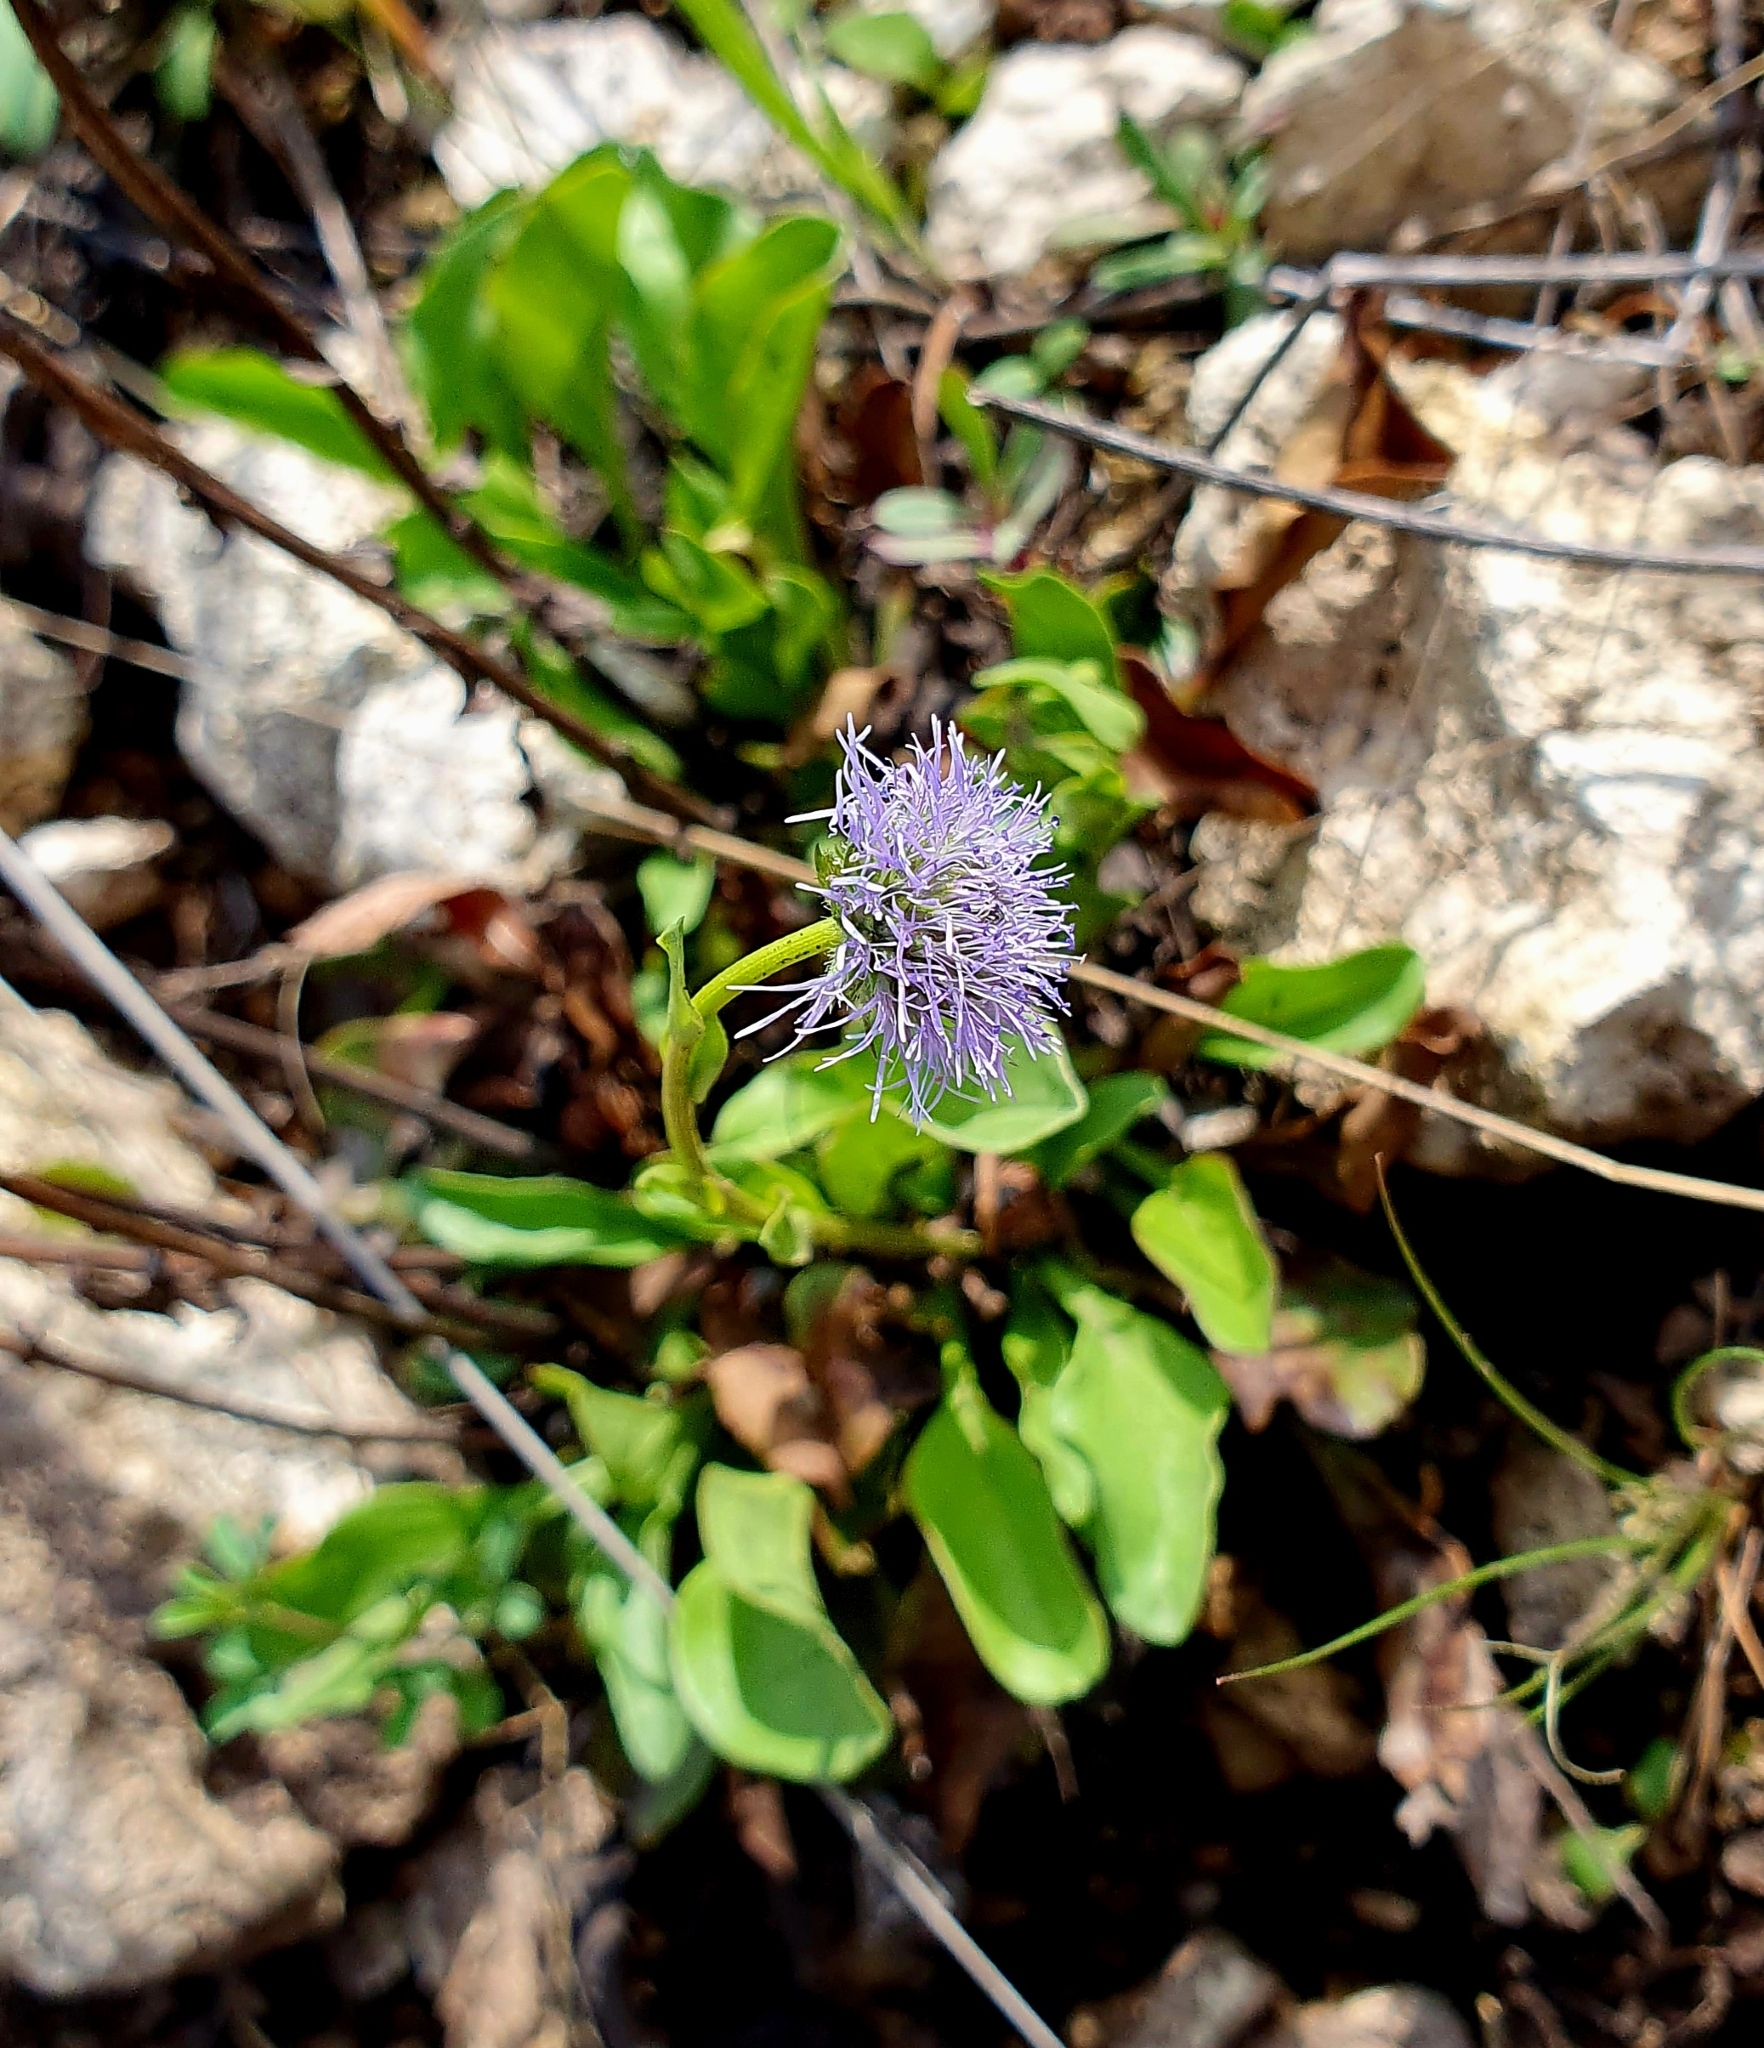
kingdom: Plantae
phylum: Tracheophyta
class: Magnoliopsida
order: Lamiales
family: Plantaginaceae
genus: Globularia
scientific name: Globularia bisnagarica
